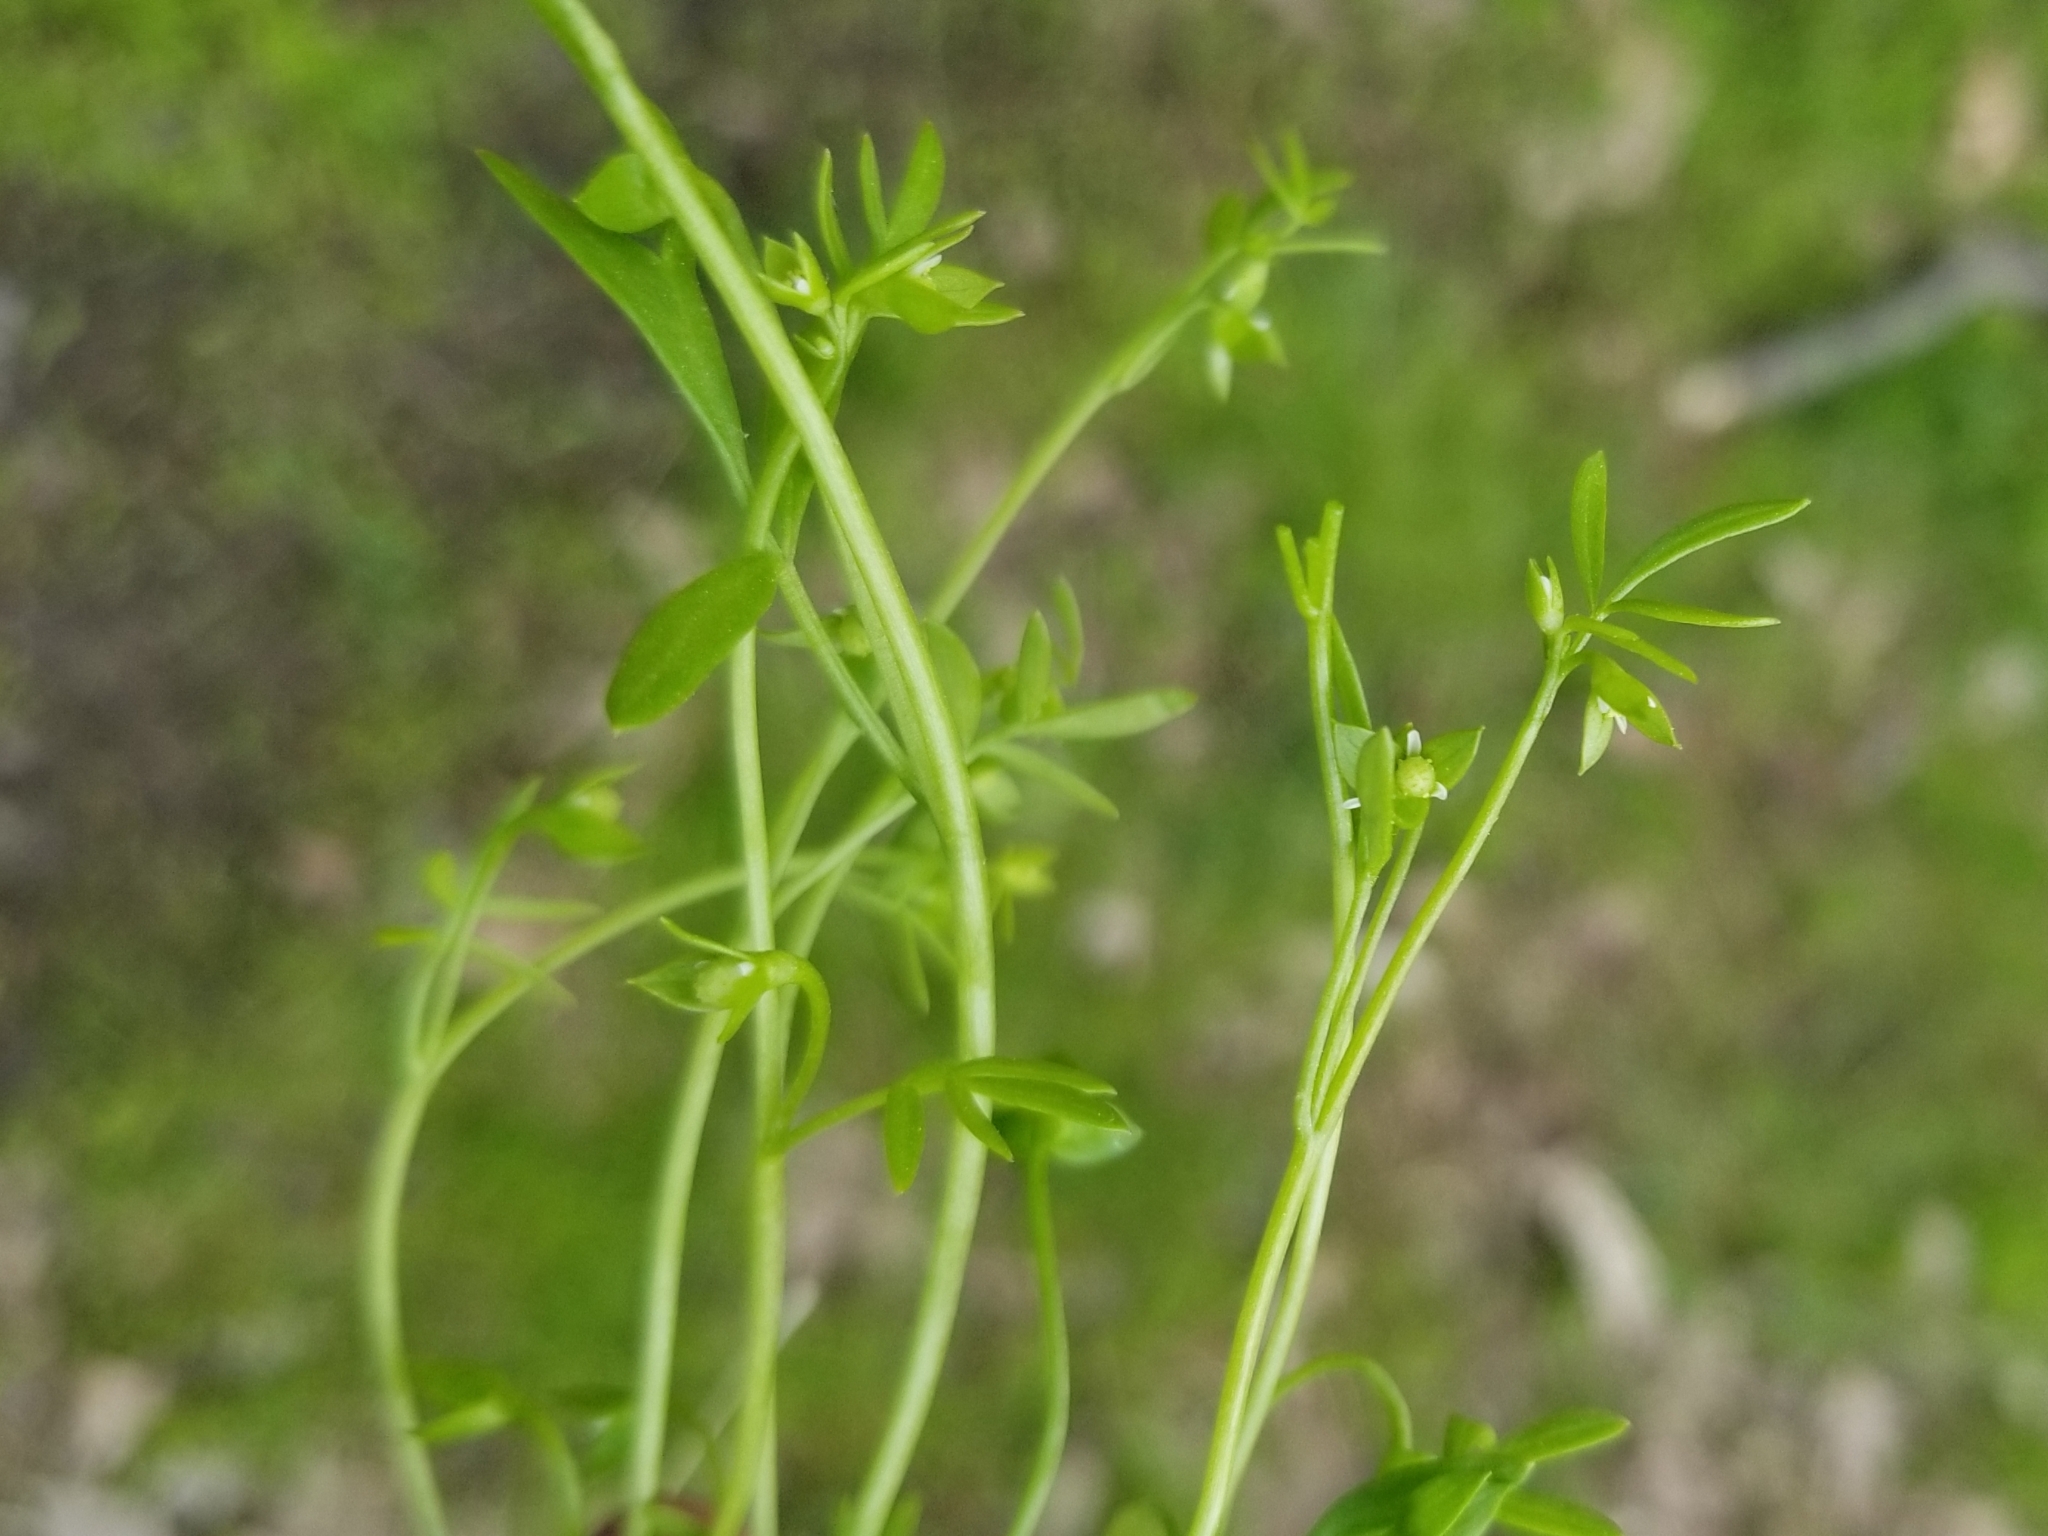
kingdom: Plantae
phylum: Tracheophyta
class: Magnoliopsida
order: Brassicales
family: Limnanthaceae
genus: Floerkea
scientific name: Floerkea proserpinacoides
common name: False mermaid
